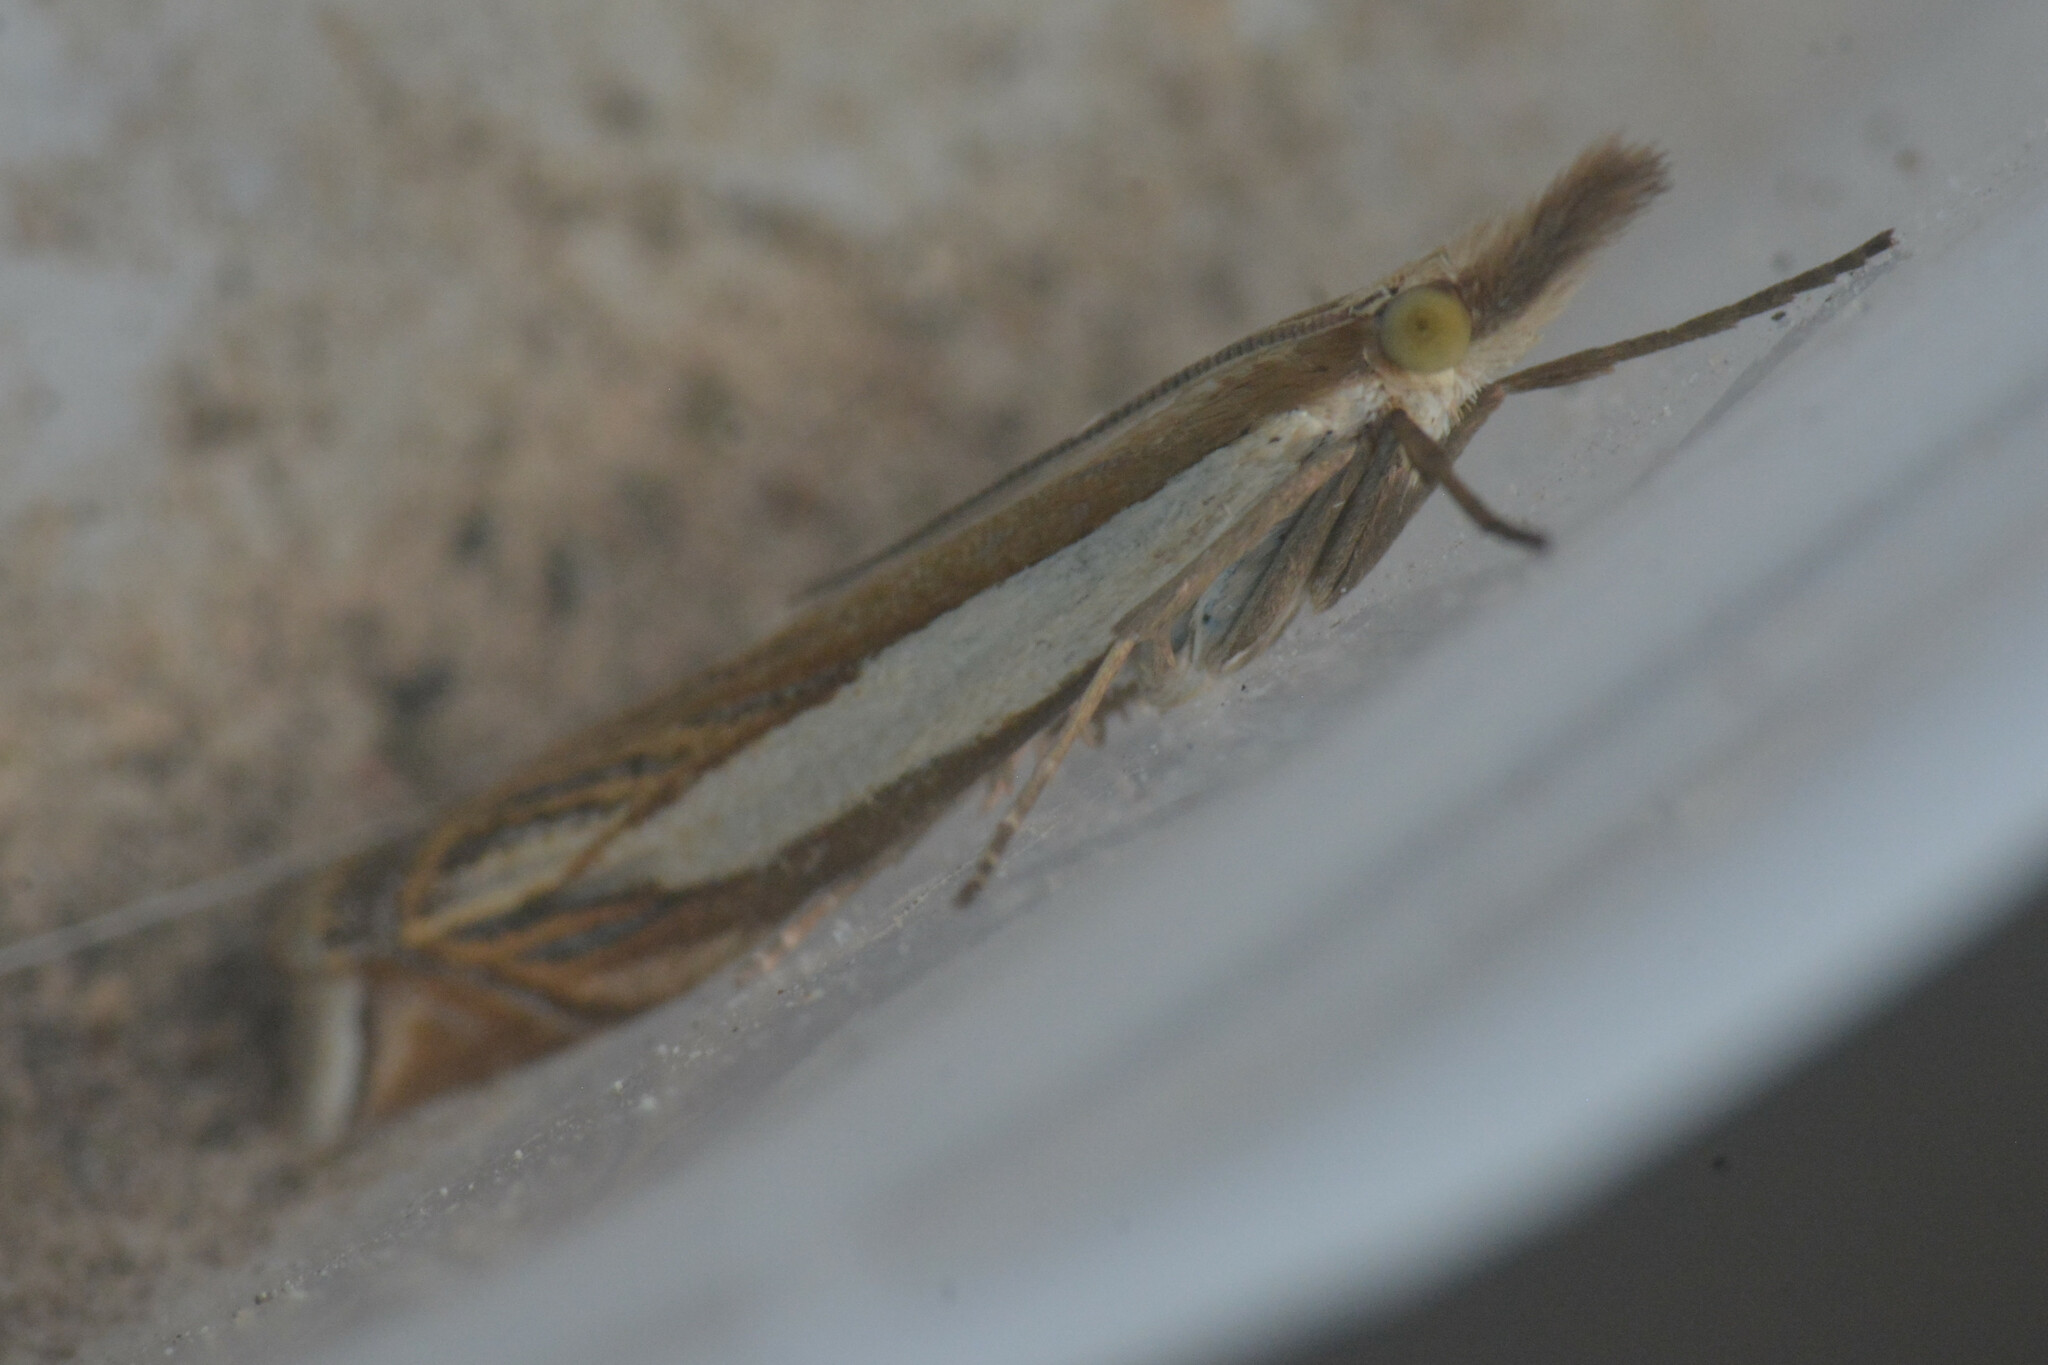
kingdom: Animalia
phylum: Arthropoda
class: Insecta
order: Lepidoptera
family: Crambidae
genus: Crambus
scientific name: Crambus pascuella
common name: Inlaid grass-veneer
